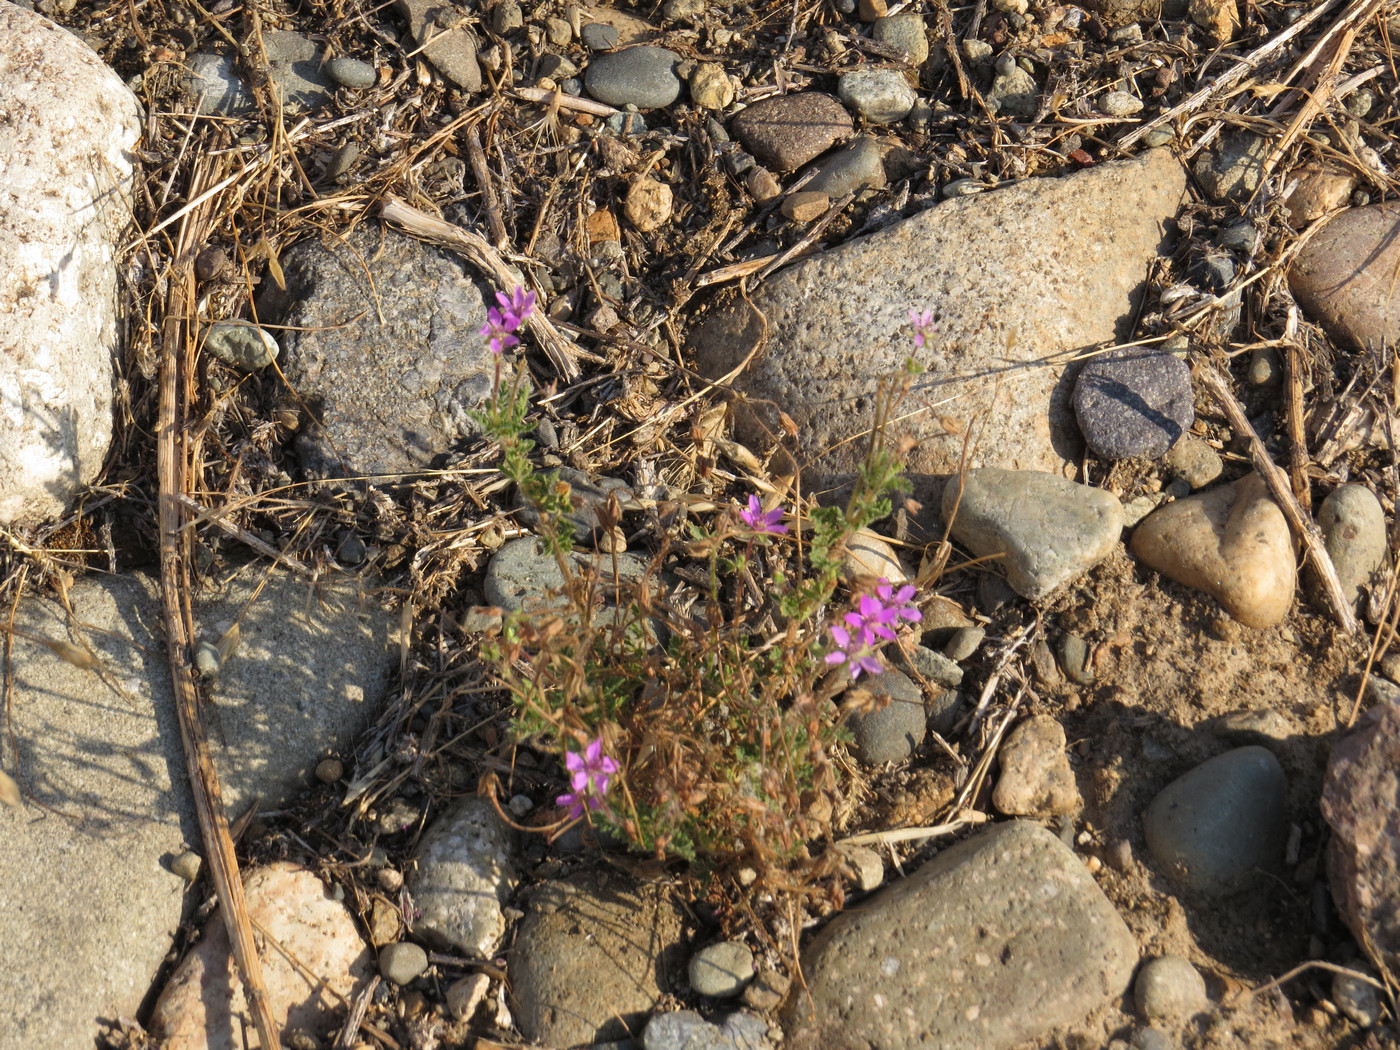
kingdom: Plantae
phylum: Tracheophyta
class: Magnoliopsida
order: Geraniales
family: Geraniaceae
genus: Erodium
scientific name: Erodium cicutarium
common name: Common stork's-bill
